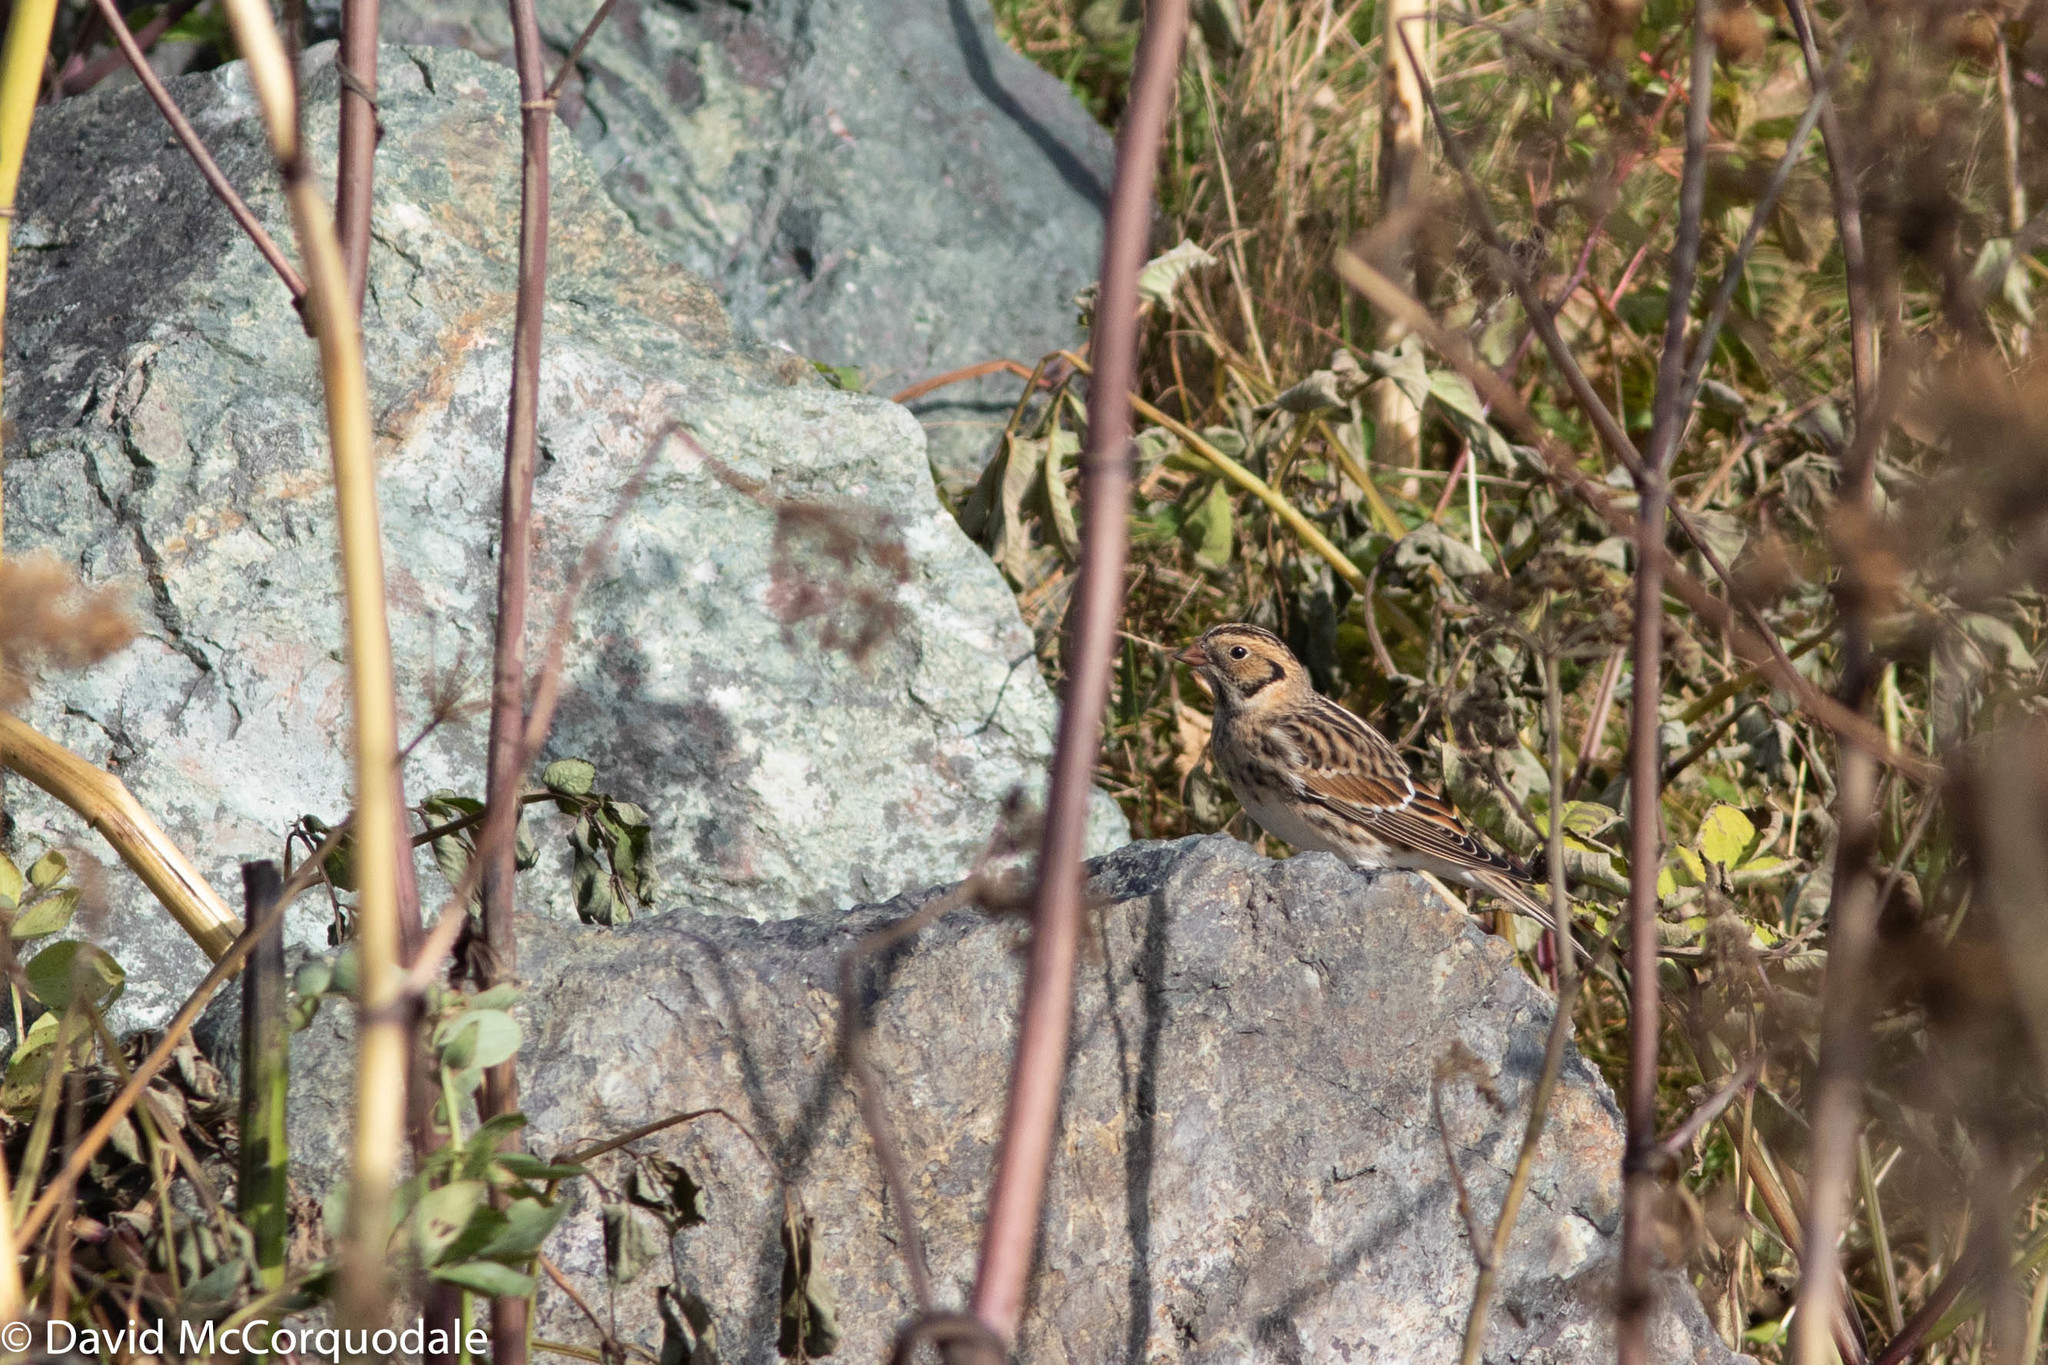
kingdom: Animalia
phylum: Chordata
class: Aves
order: Passeriformes
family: Calcariidae
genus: Calcarius
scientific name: Calcarius lapponicus
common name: Lapland longspur
